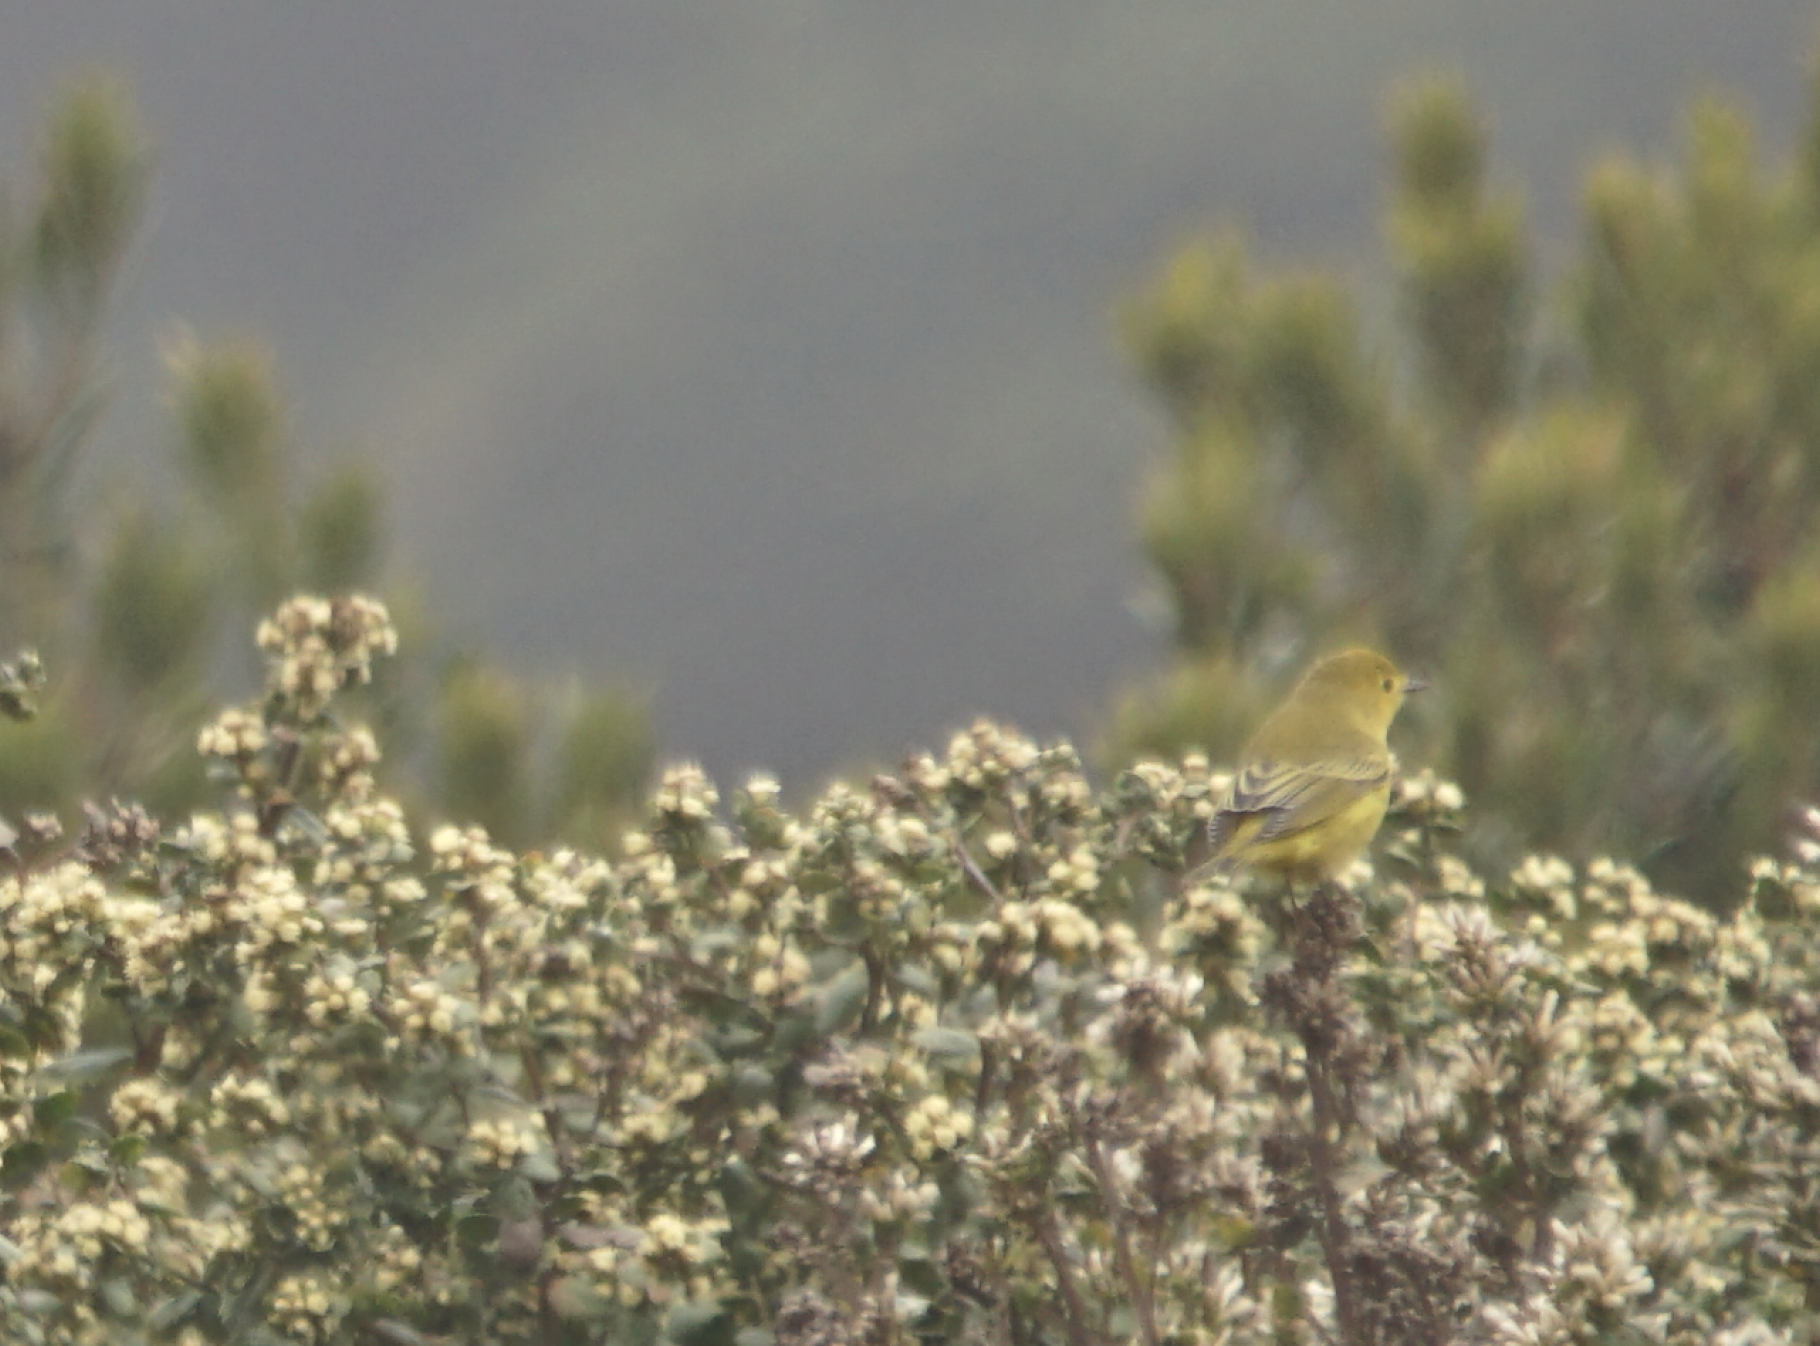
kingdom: Animalia
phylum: Chordata
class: Aves
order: Passeriformes
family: Parulidae
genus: Setophaga
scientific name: Setophaga petechia
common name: Yellow warbler
